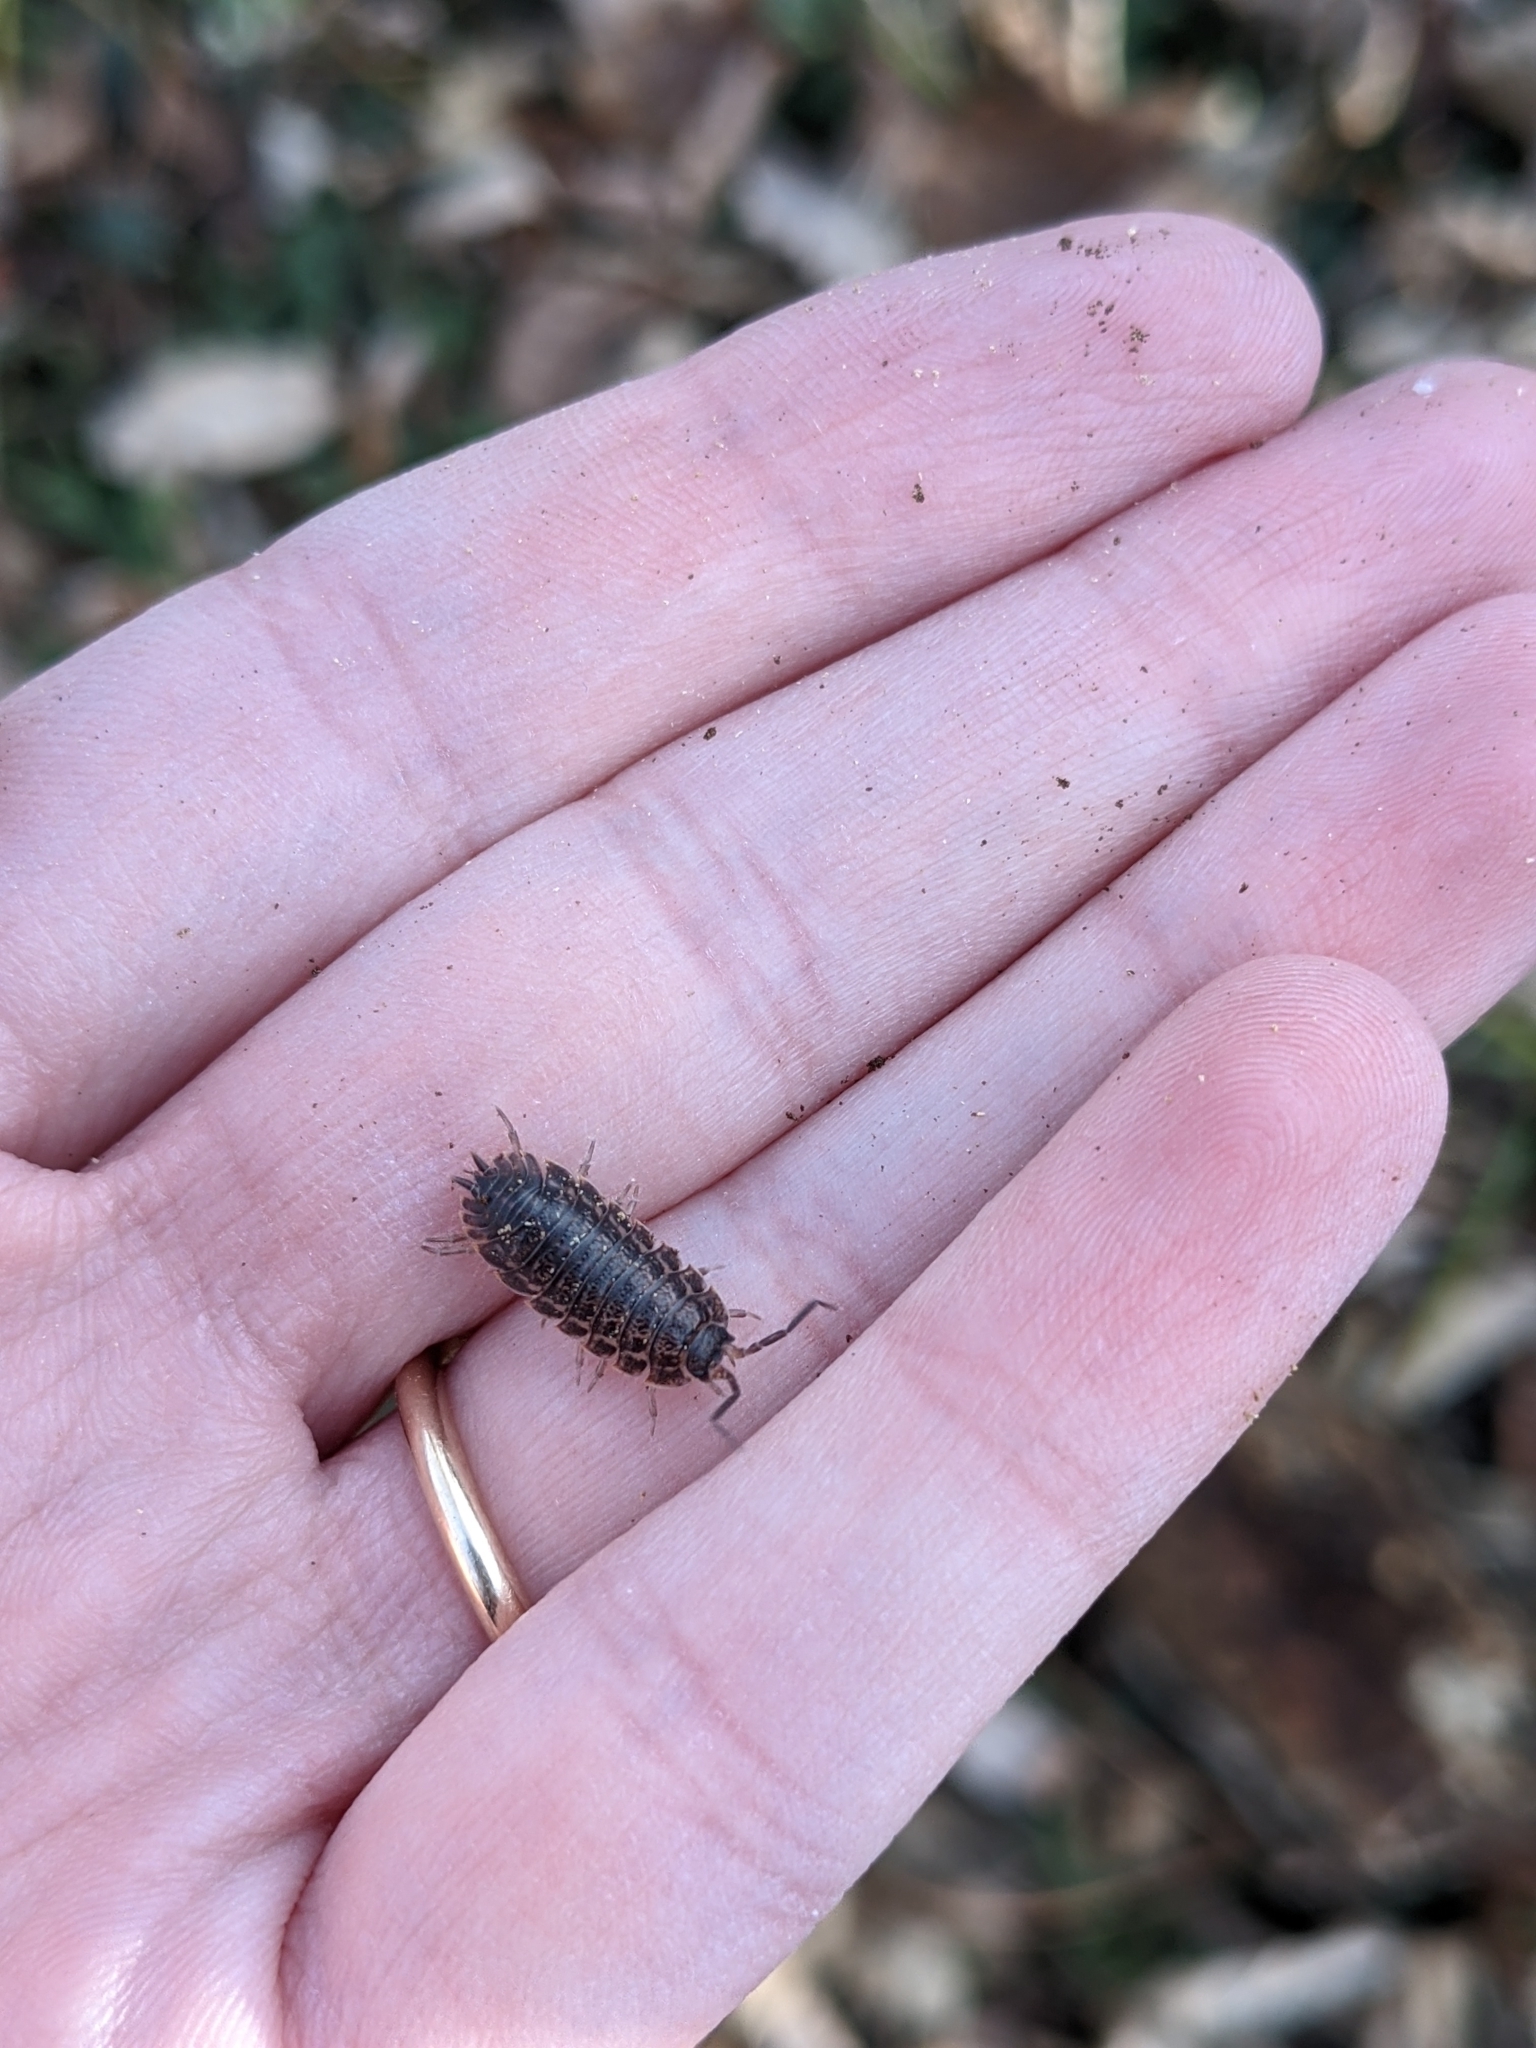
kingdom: Animalia
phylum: Arthropoda
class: Malacostraca
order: Isopoda
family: Trachelipodidae
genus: Trachelipus
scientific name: Trachelipus rathkii
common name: Isopod
